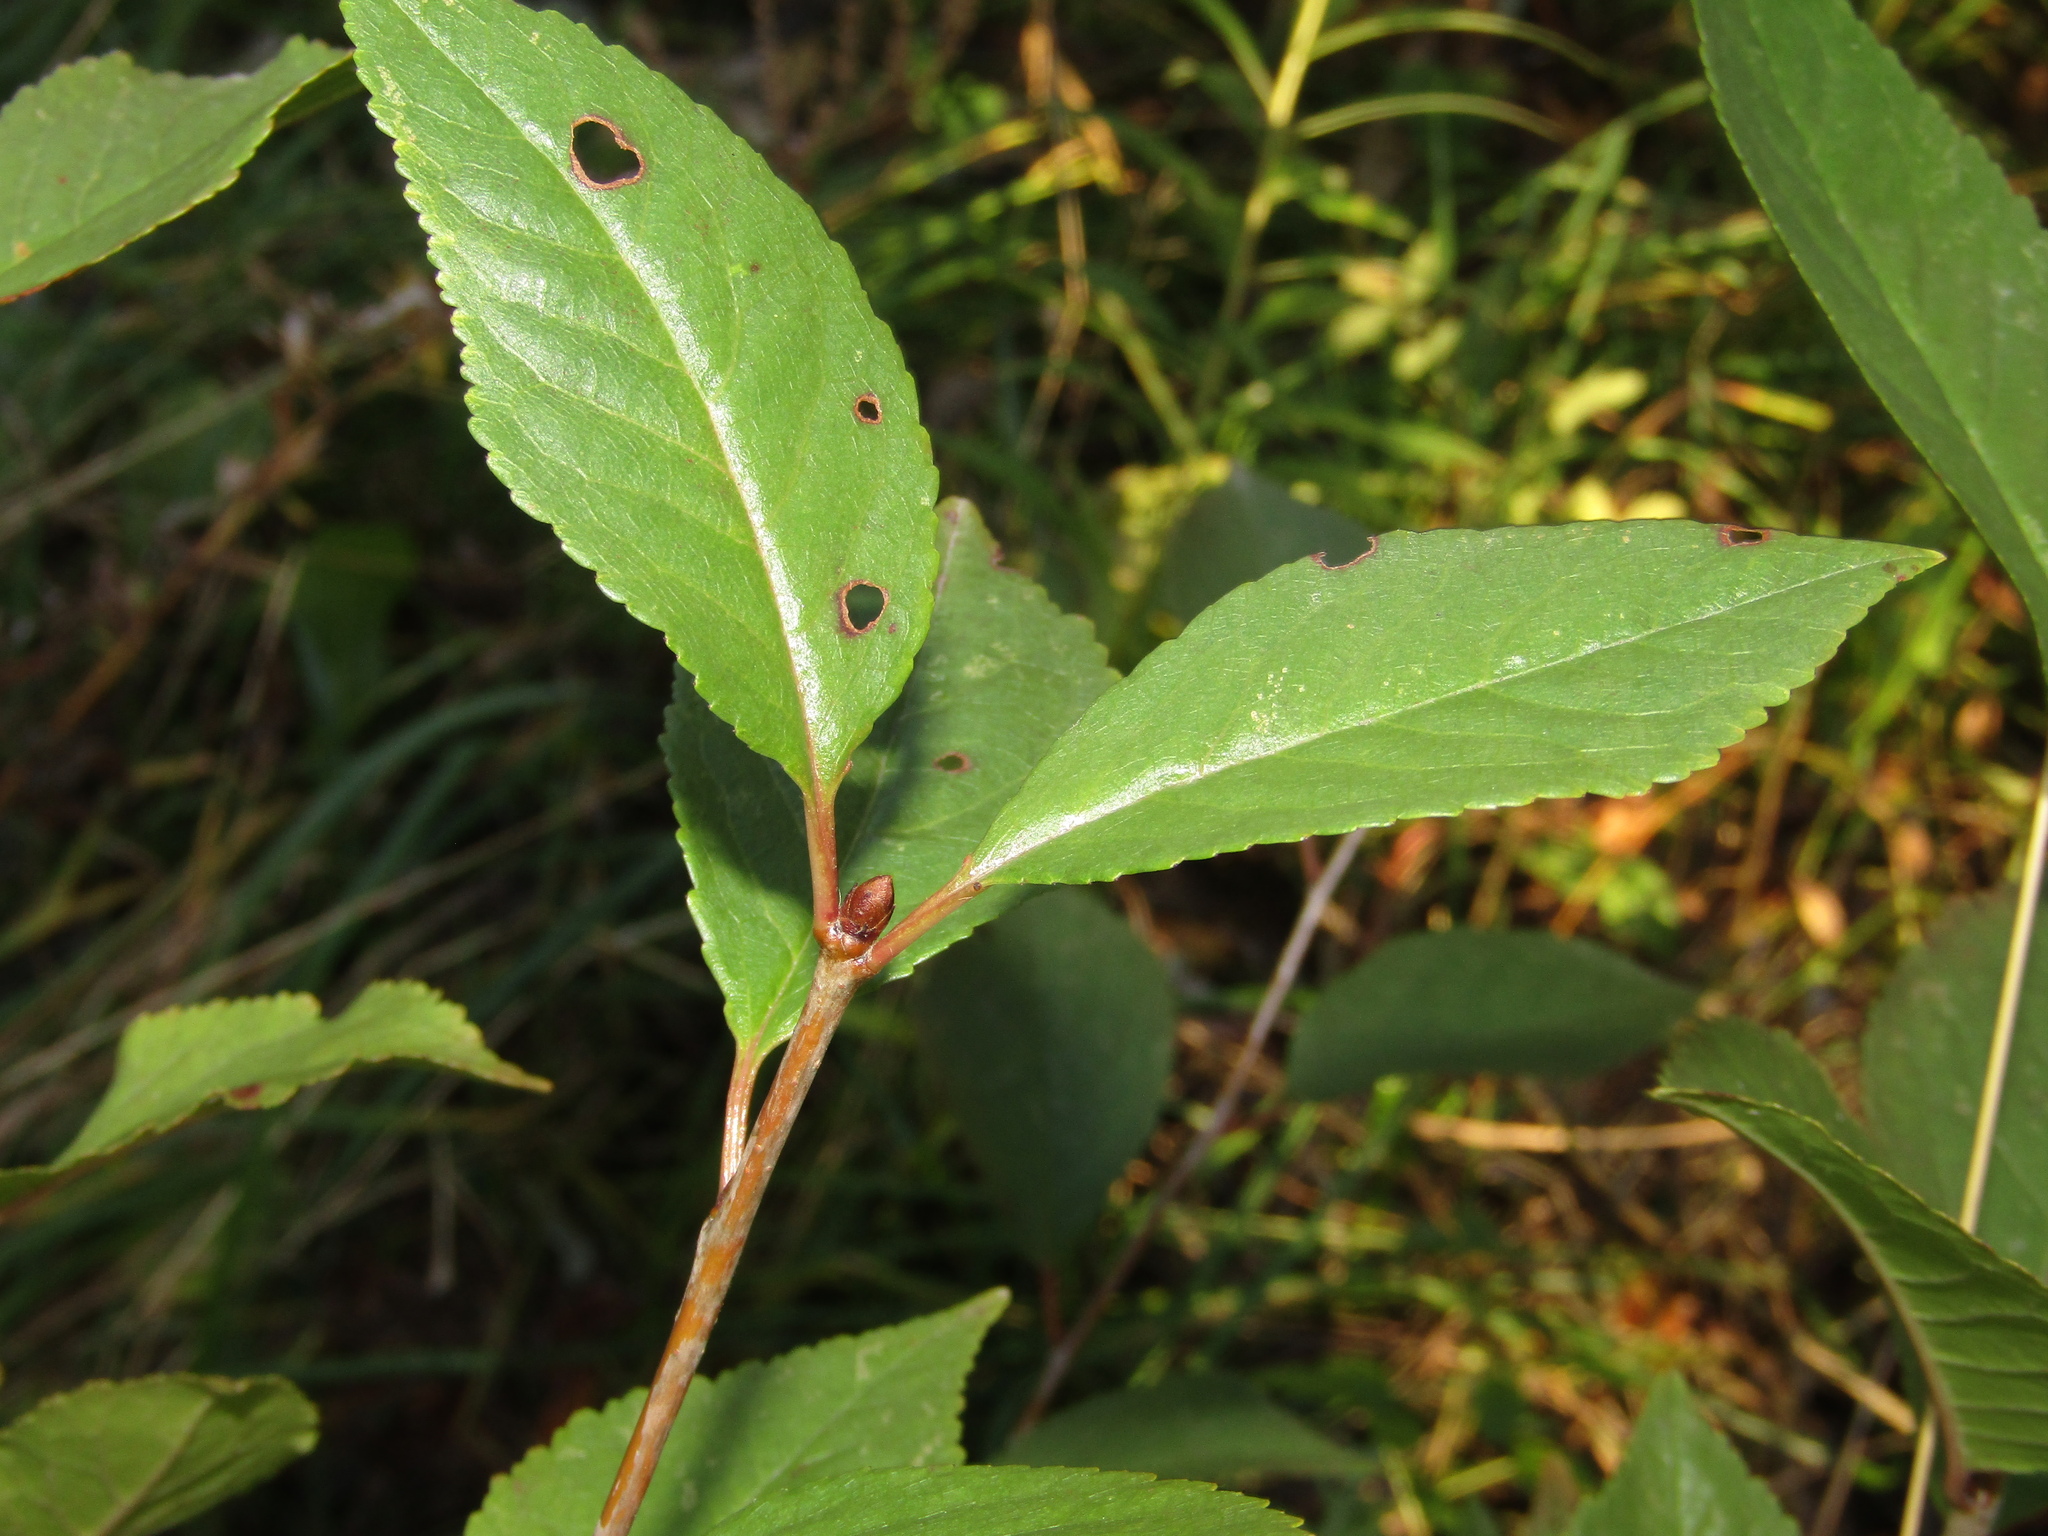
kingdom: Plantae
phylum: Tracheophyta
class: Magnoliopsida
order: Rosales
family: Rosaceae
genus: Prunus
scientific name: Prunus cerasus
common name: Morello cherry
